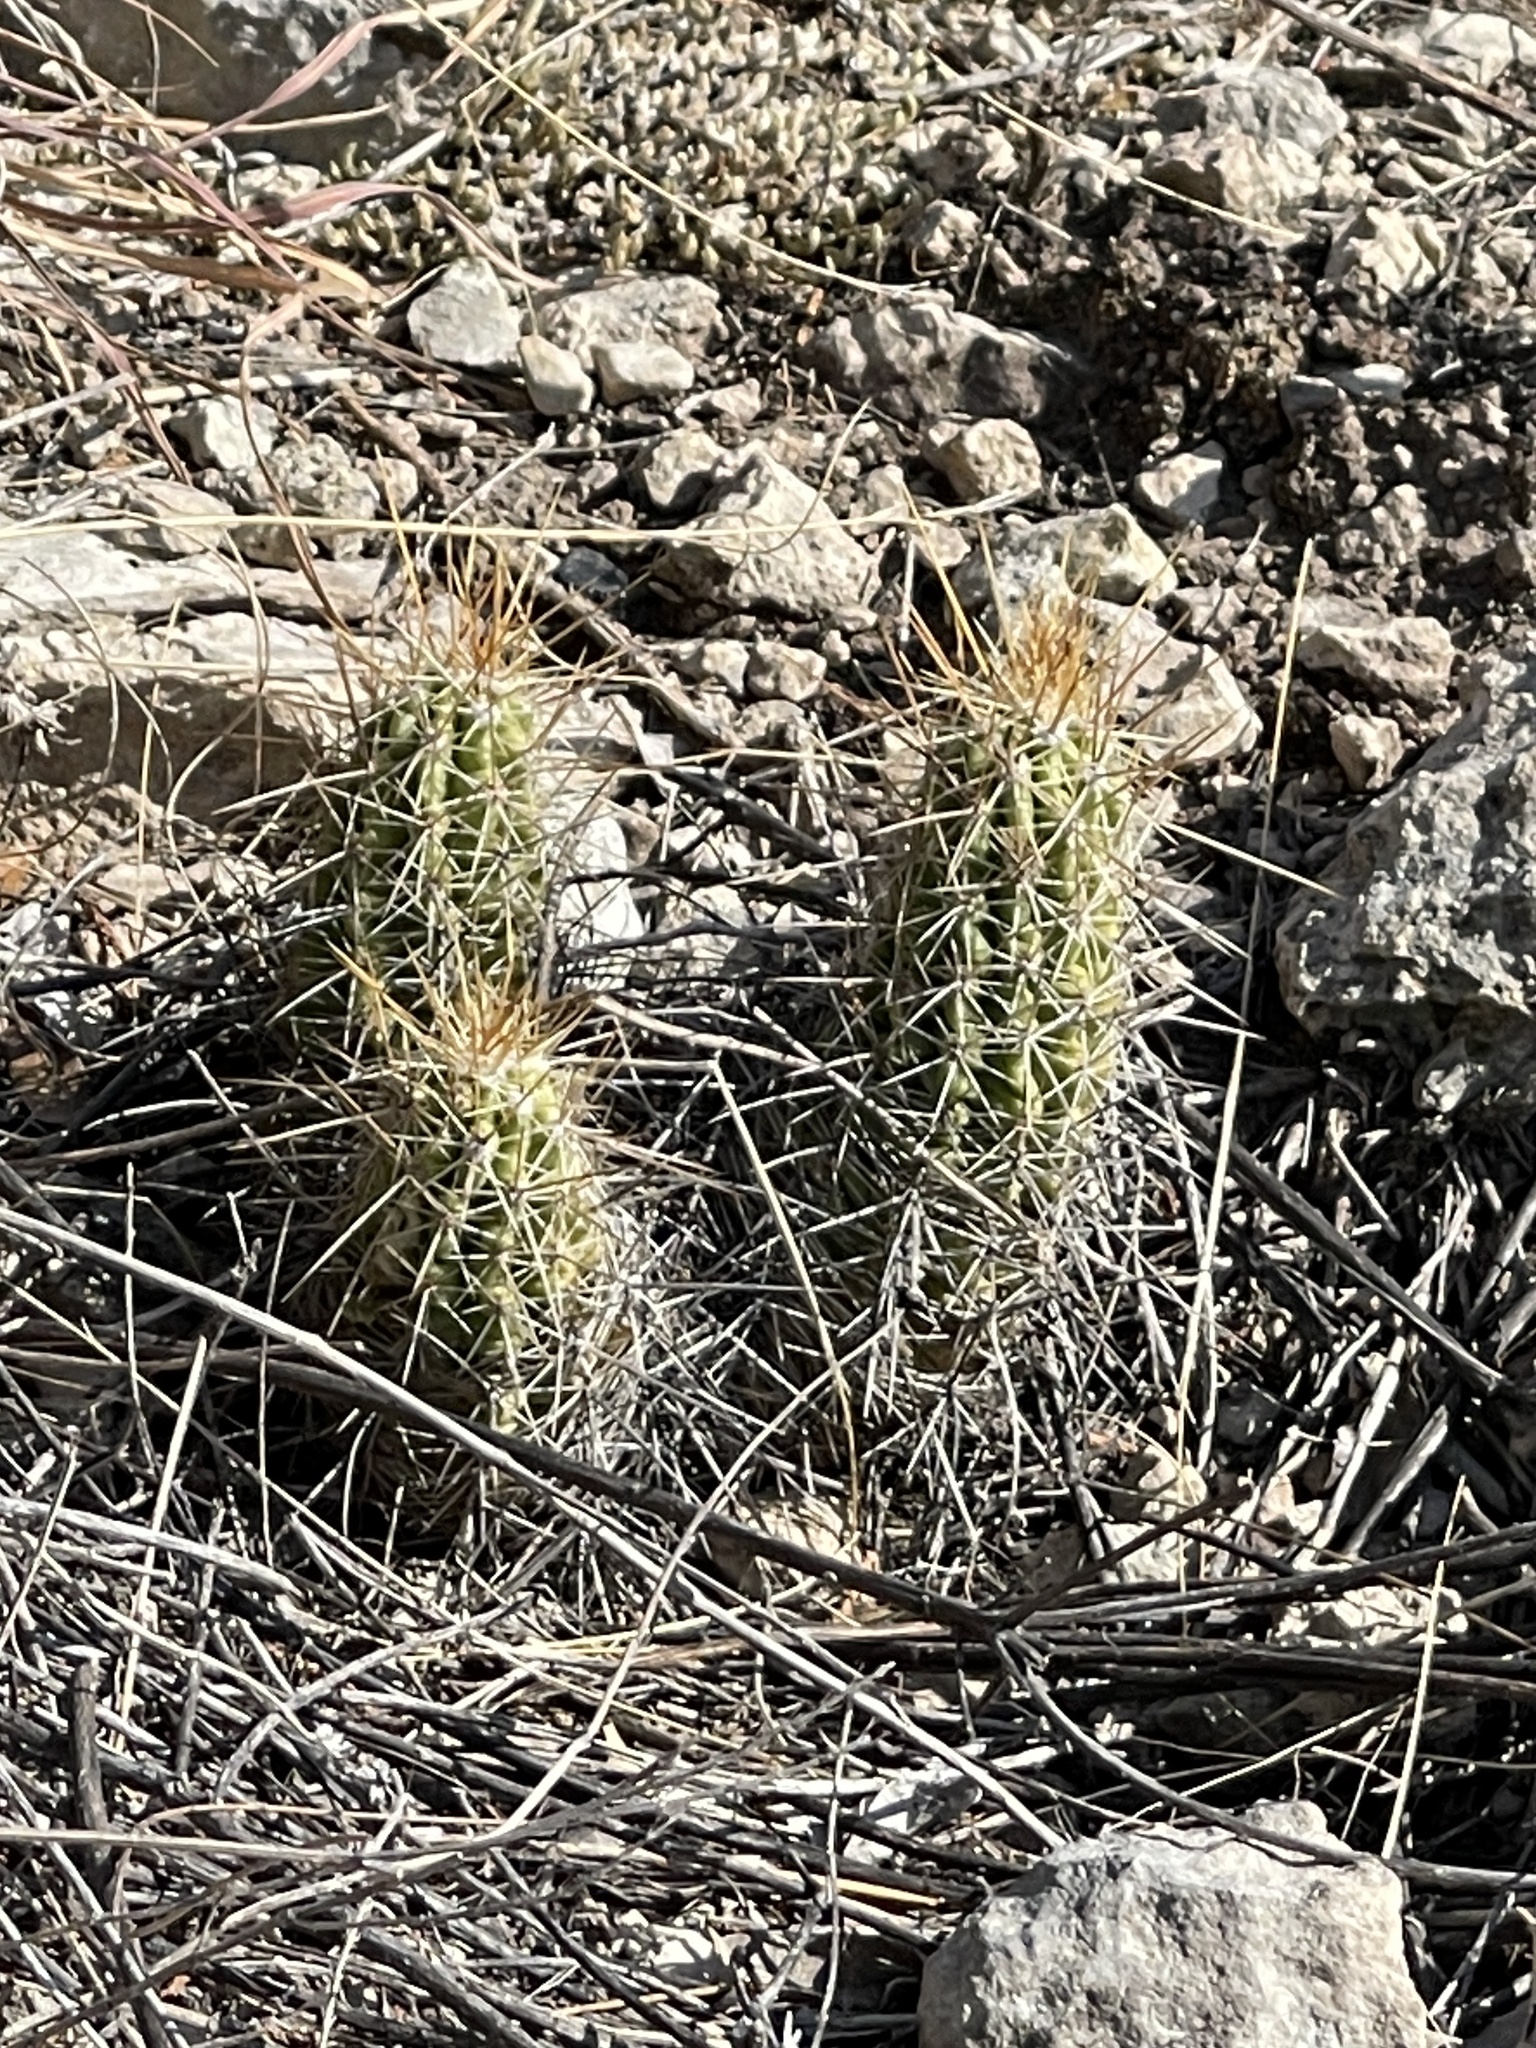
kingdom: Plantae
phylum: Tracheophyta
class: Magnoliopsida
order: Caryophyllales
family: Cactaceae
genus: Echinocereus
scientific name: Echinocereus enneacanthus
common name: Pitaya
